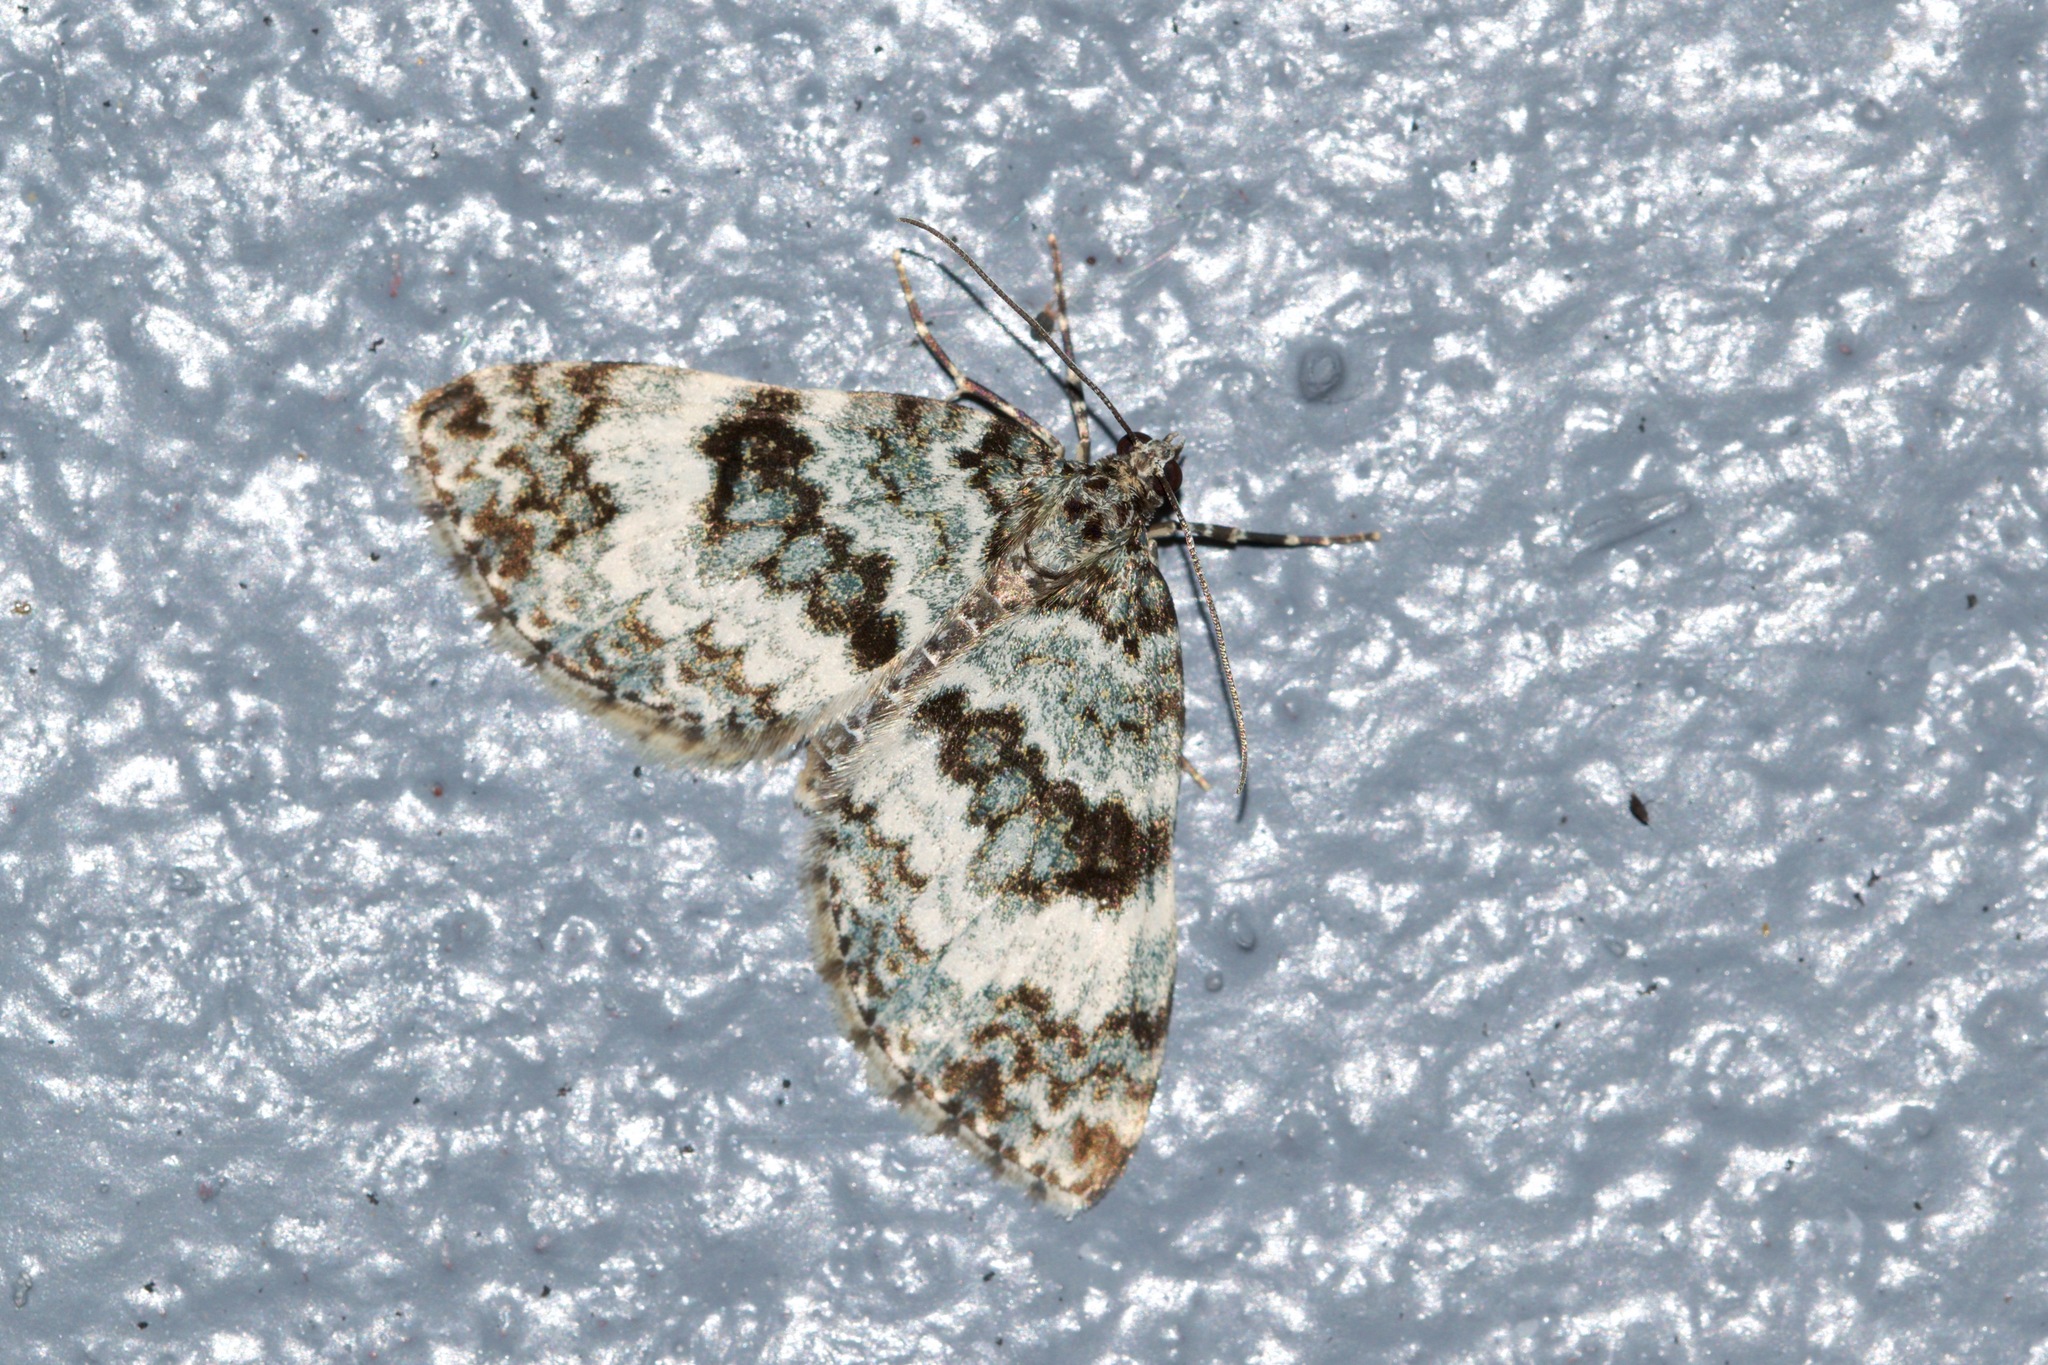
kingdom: Animalia
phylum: Arthropoda
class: Insecta
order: Lepidoptera
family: Geometridae
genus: Spargania
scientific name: Spargania magnoliata
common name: Double-banded carpet
